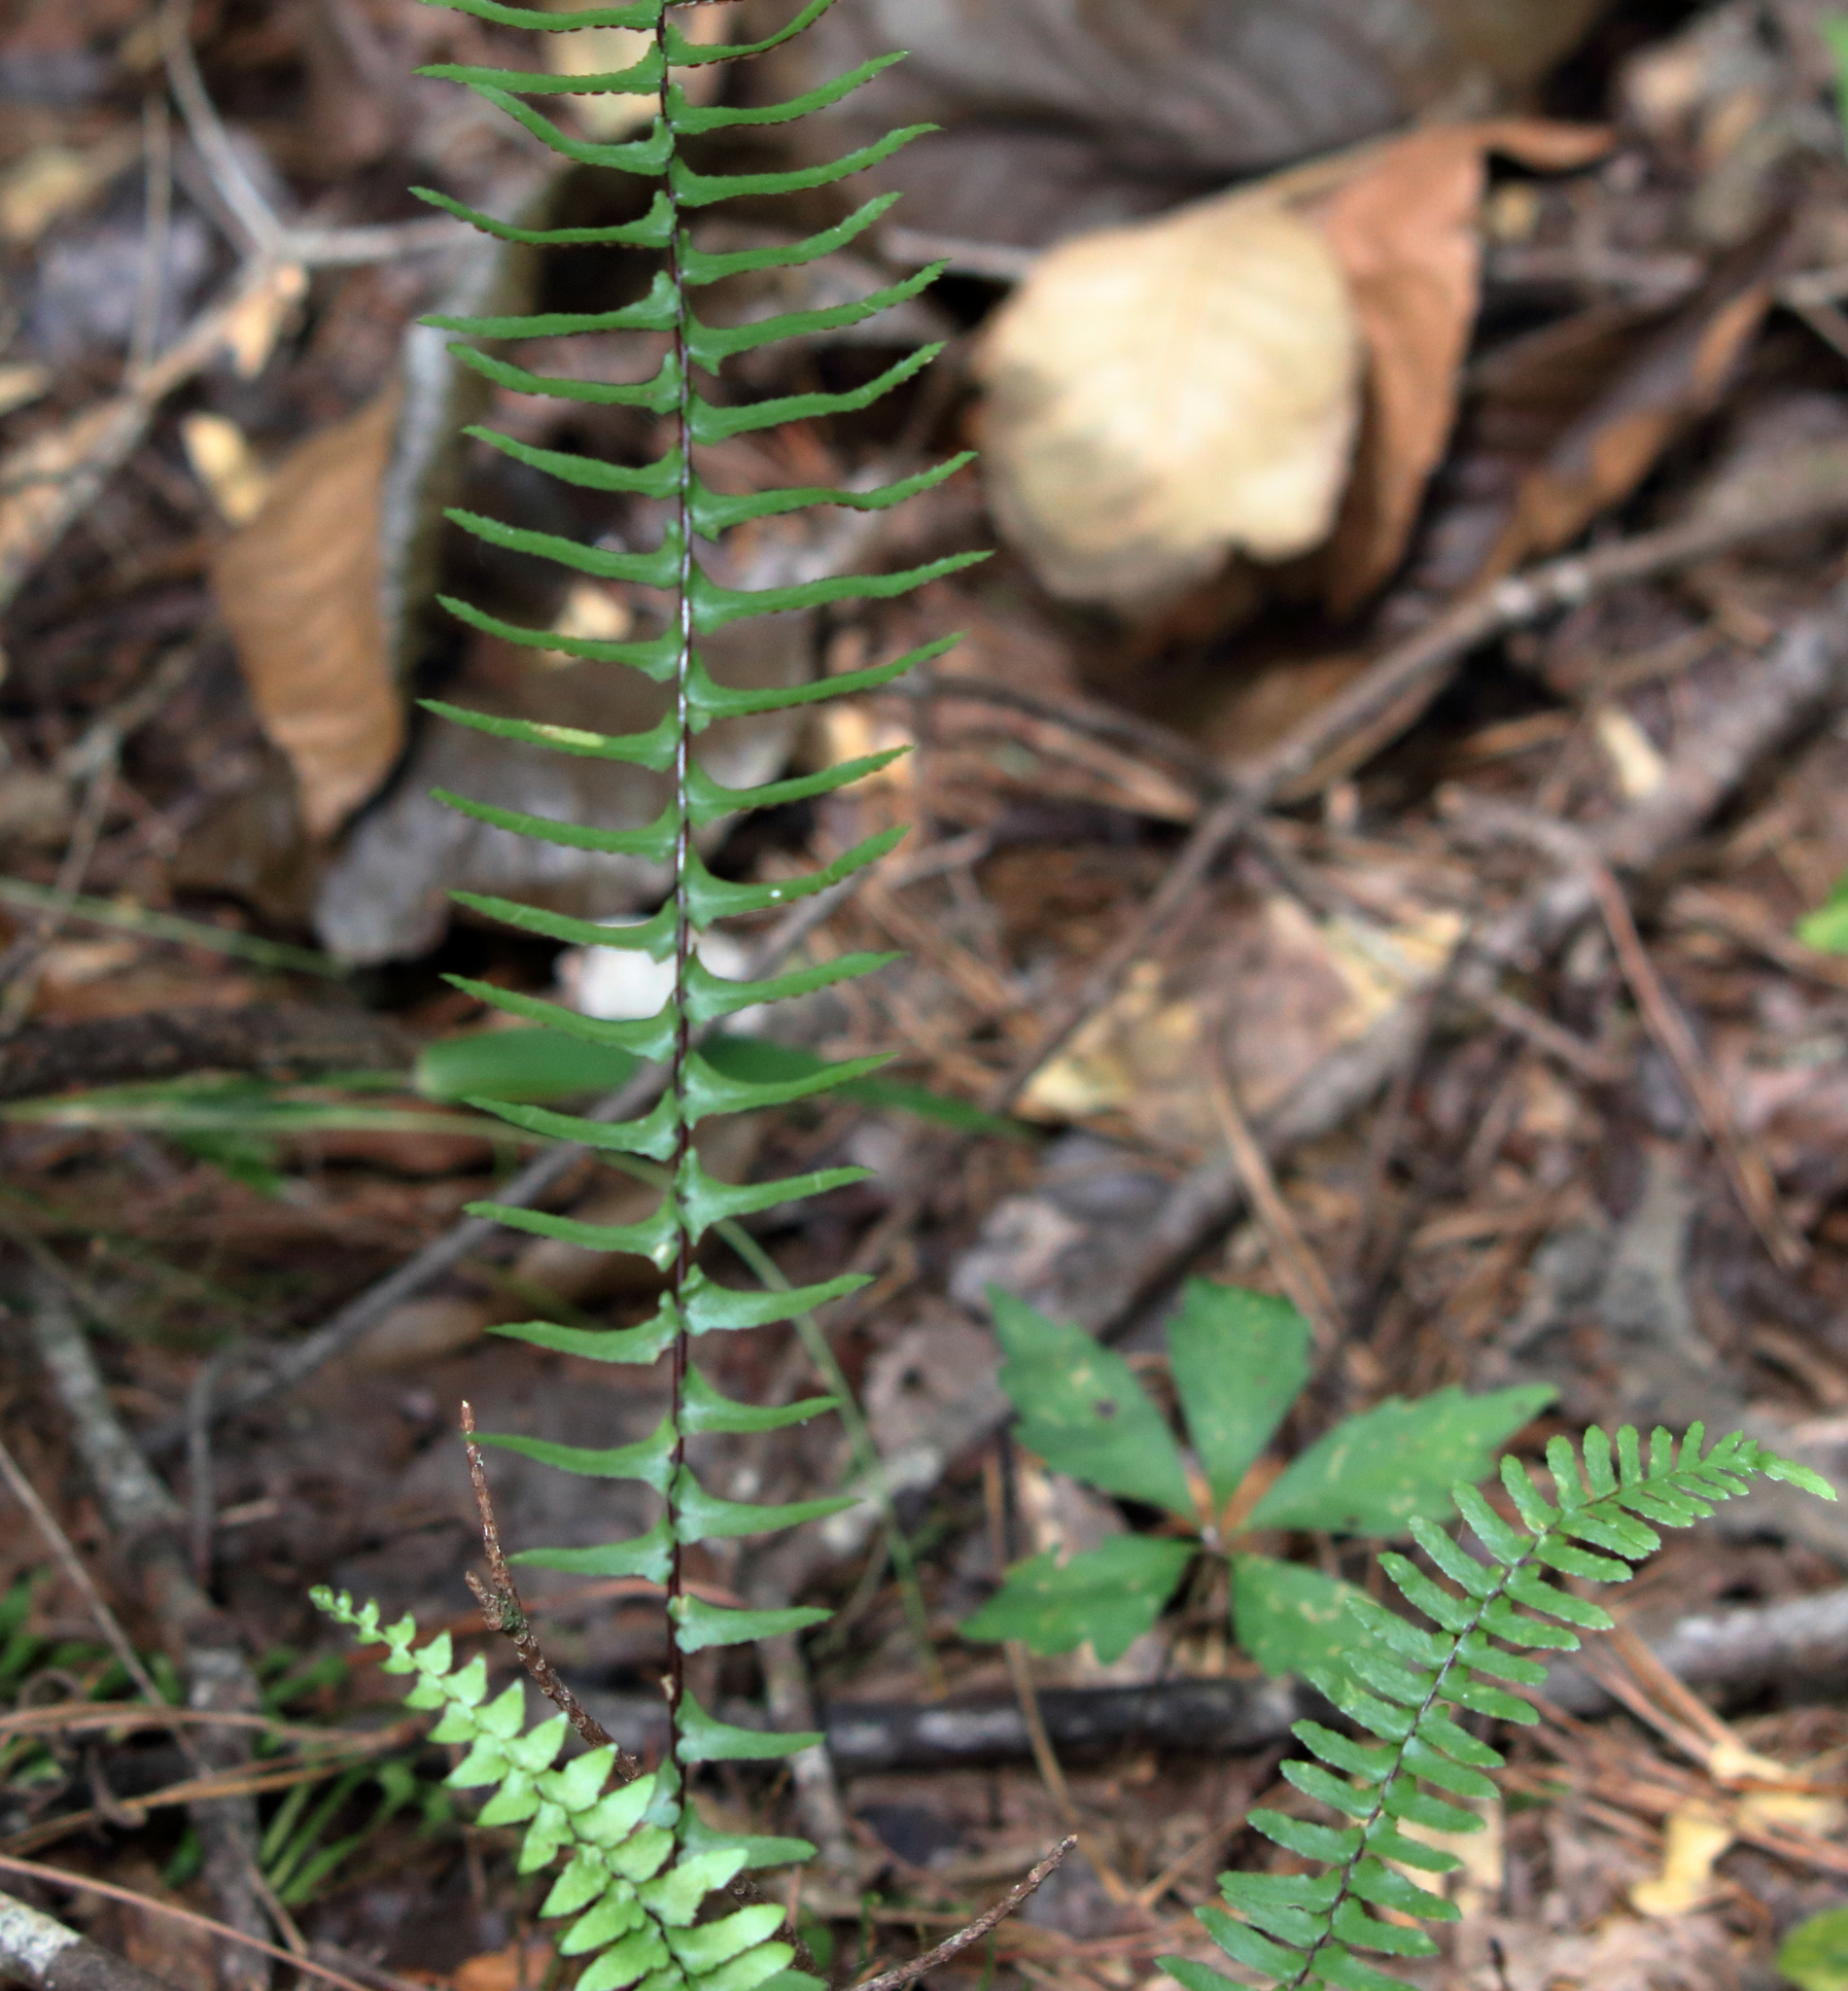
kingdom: Plantae
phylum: Tracheophyta
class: Polypodiopsida
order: Polypodiales
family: Aspleniaceae
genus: Asplenium
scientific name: Asplenium platyneuron
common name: Ebony spleenwort
